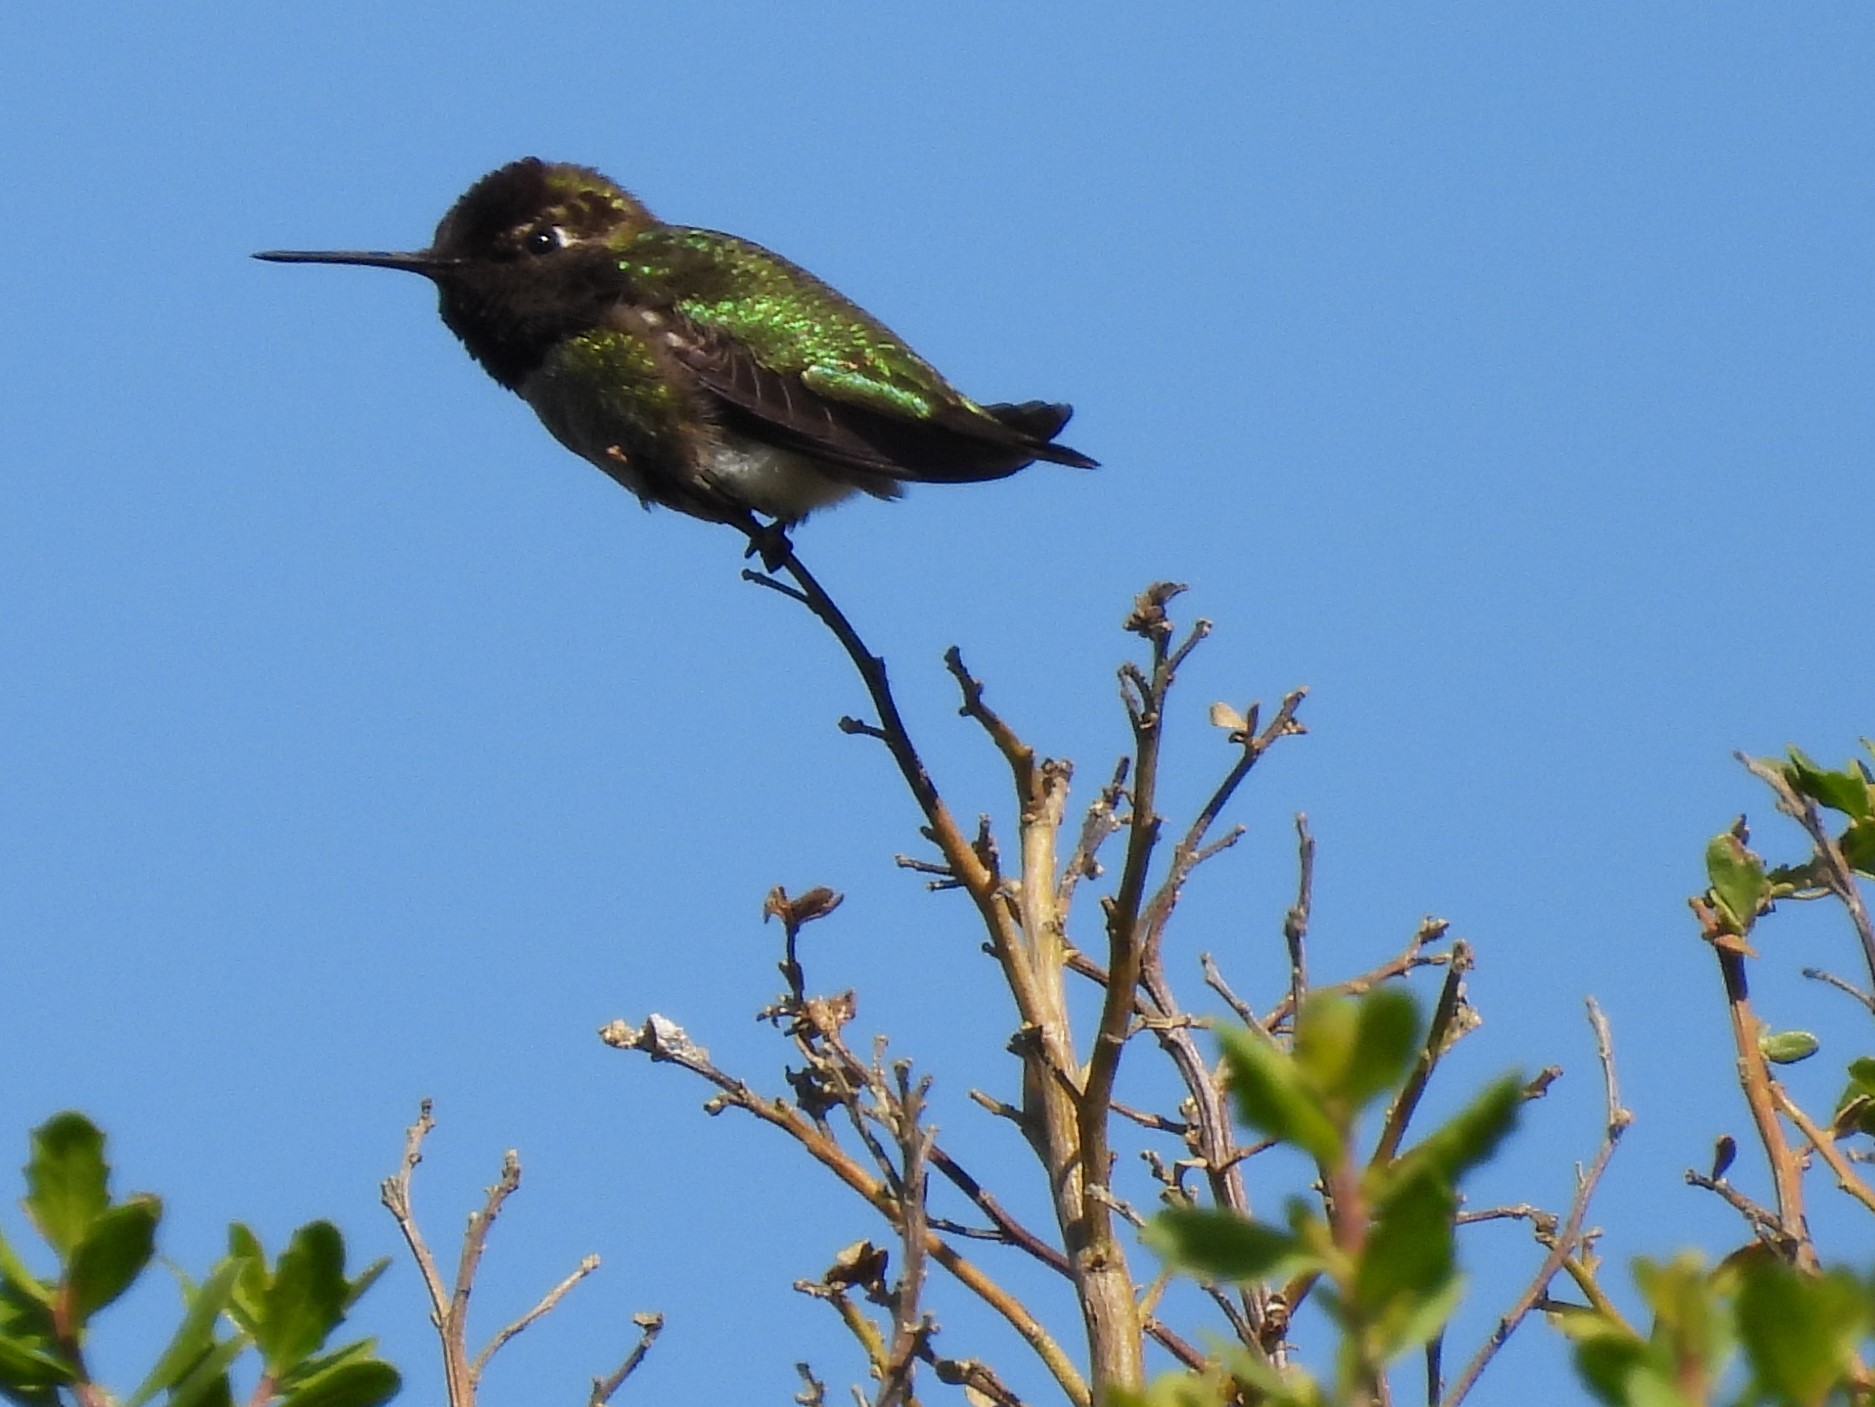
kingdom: Animalia
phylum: Chordata
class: Aves
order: Apodiformes
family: Trochilidae
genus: Calypte
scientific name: Calypte anna
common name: Anna's hummingbird
